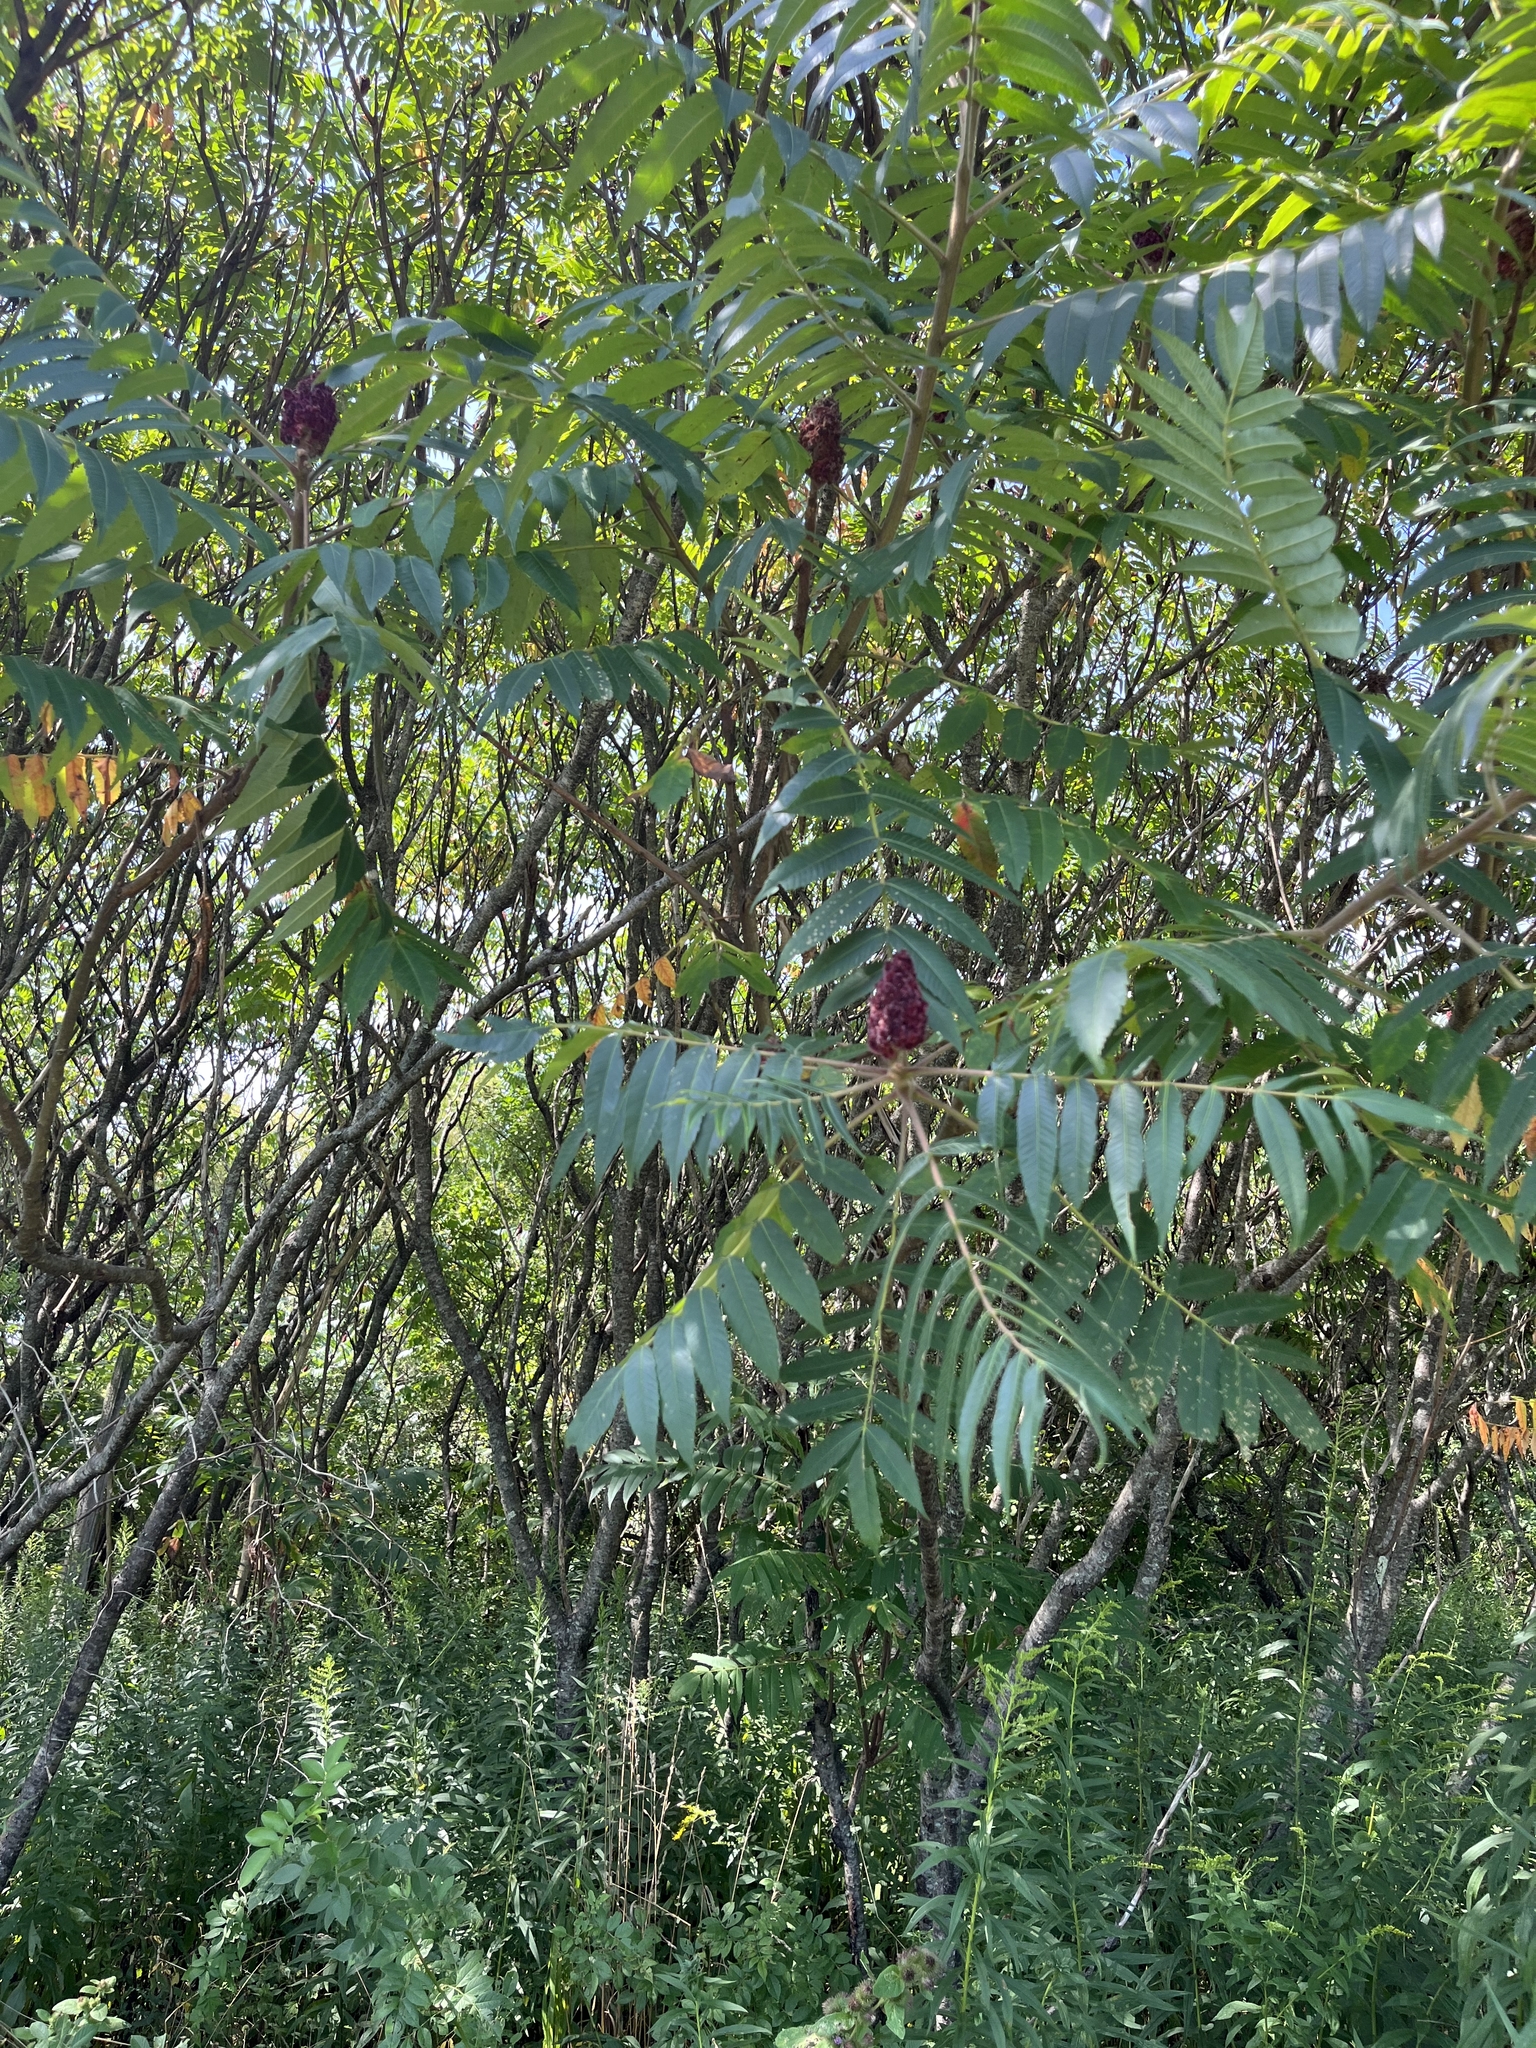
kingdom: Plantae
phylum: Tracheophyta
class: Magnoliopsida
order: Sapindales
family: Anacardiaceae
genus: Rhus
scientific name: Rhus typhina
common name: Staghorn sumac
